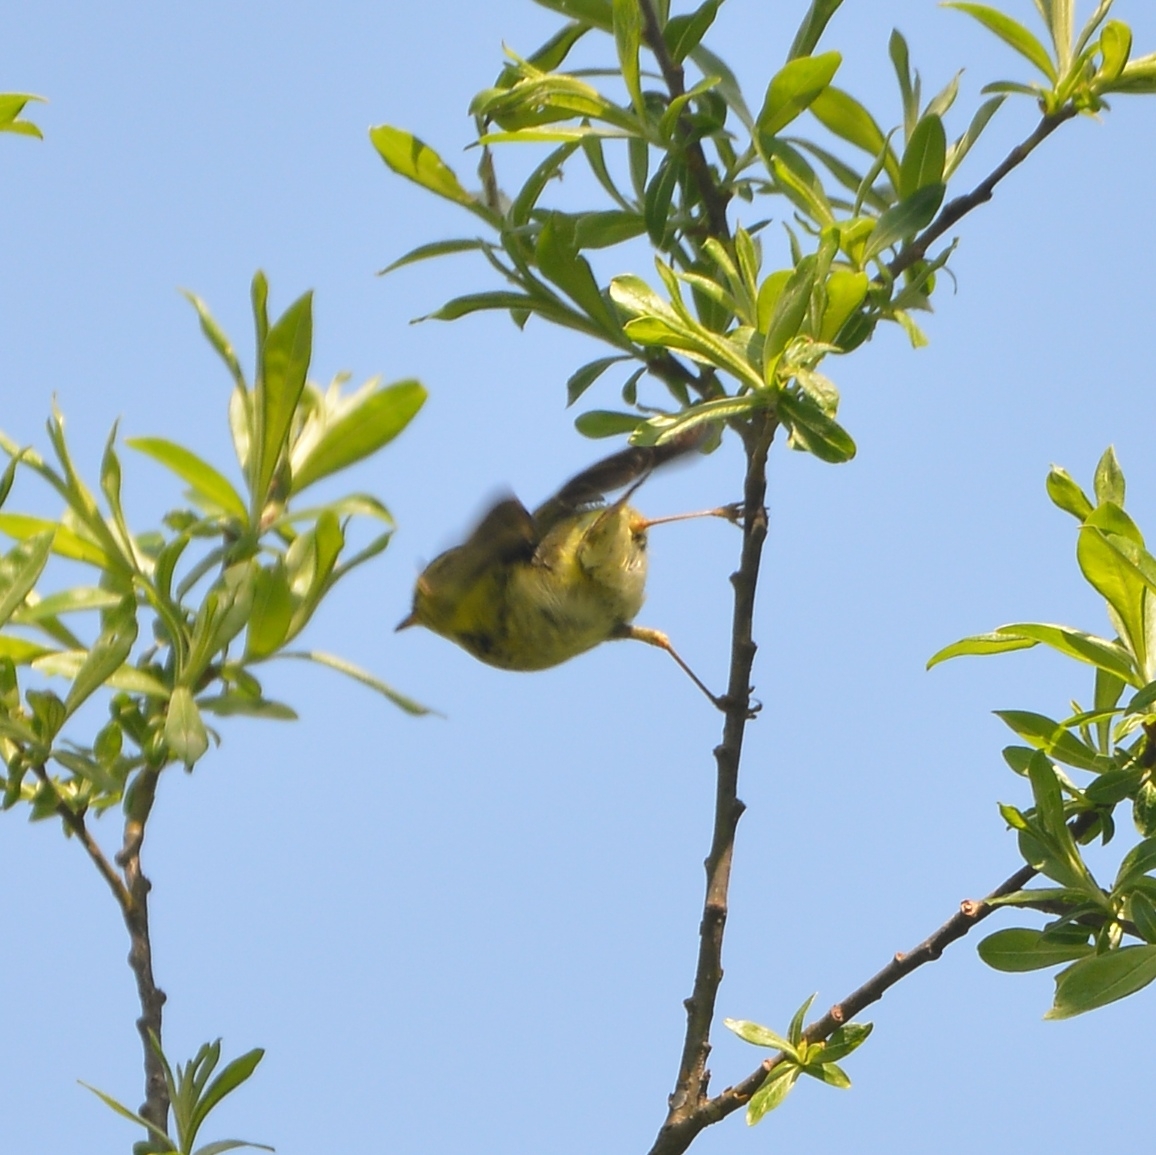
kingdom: Animalia
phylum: Chordata
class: Aves
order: Passeriformes
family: Phylloscopidae
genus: Phylloscopus
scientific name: Phylloscopus proregulus
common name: Pallas's leaf warbler
